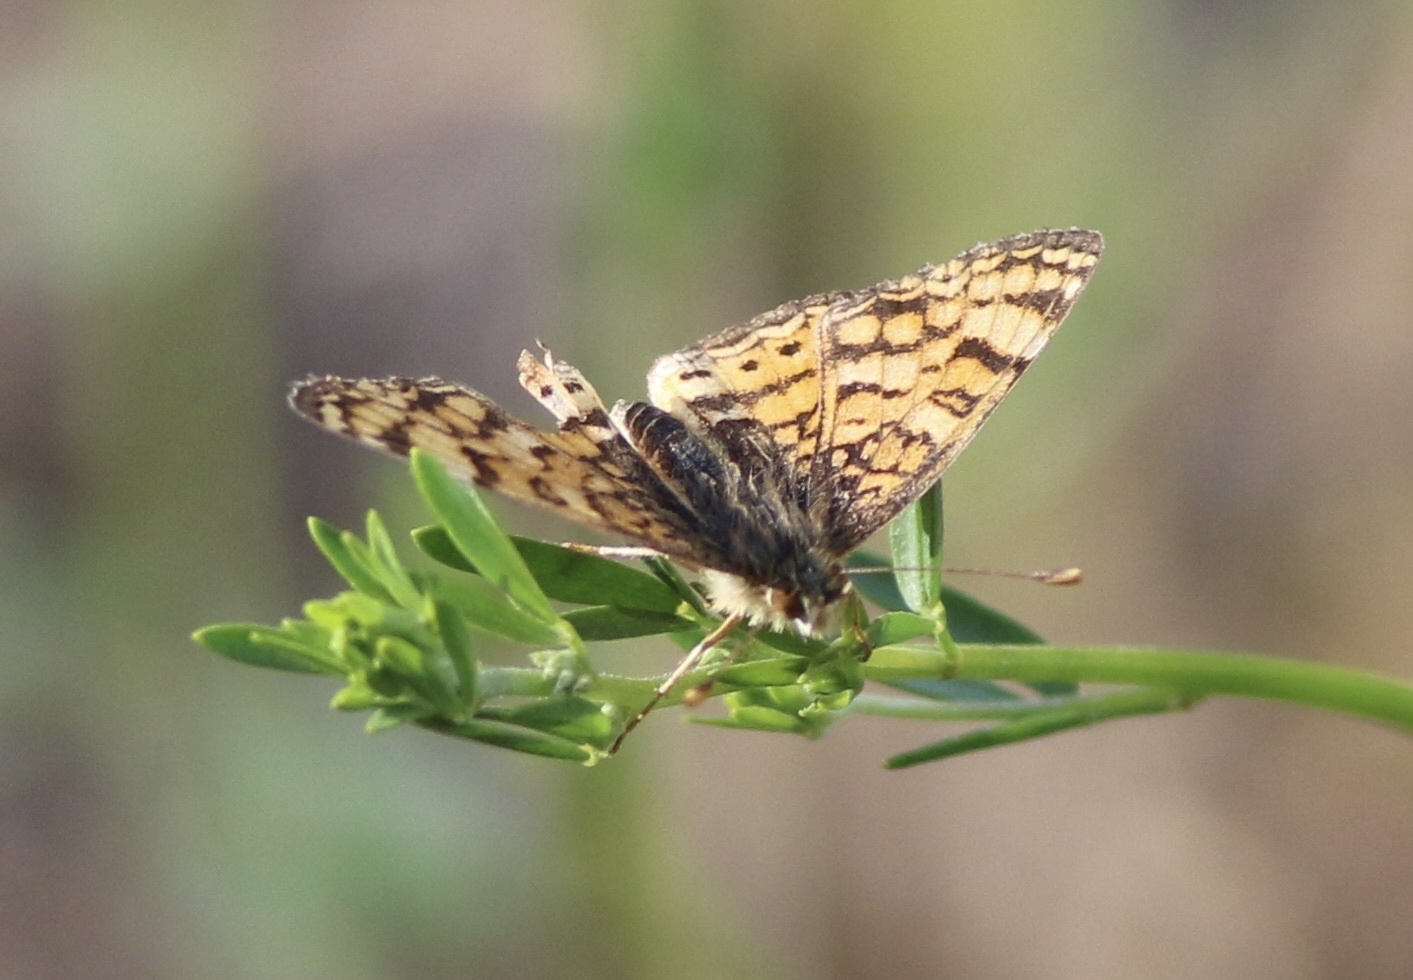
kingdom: Animalia
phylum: Arthropoda
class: Insecta
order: Lepidoptera
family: Nymphalidae
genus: Eresia
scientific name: Eresia aveyrona
